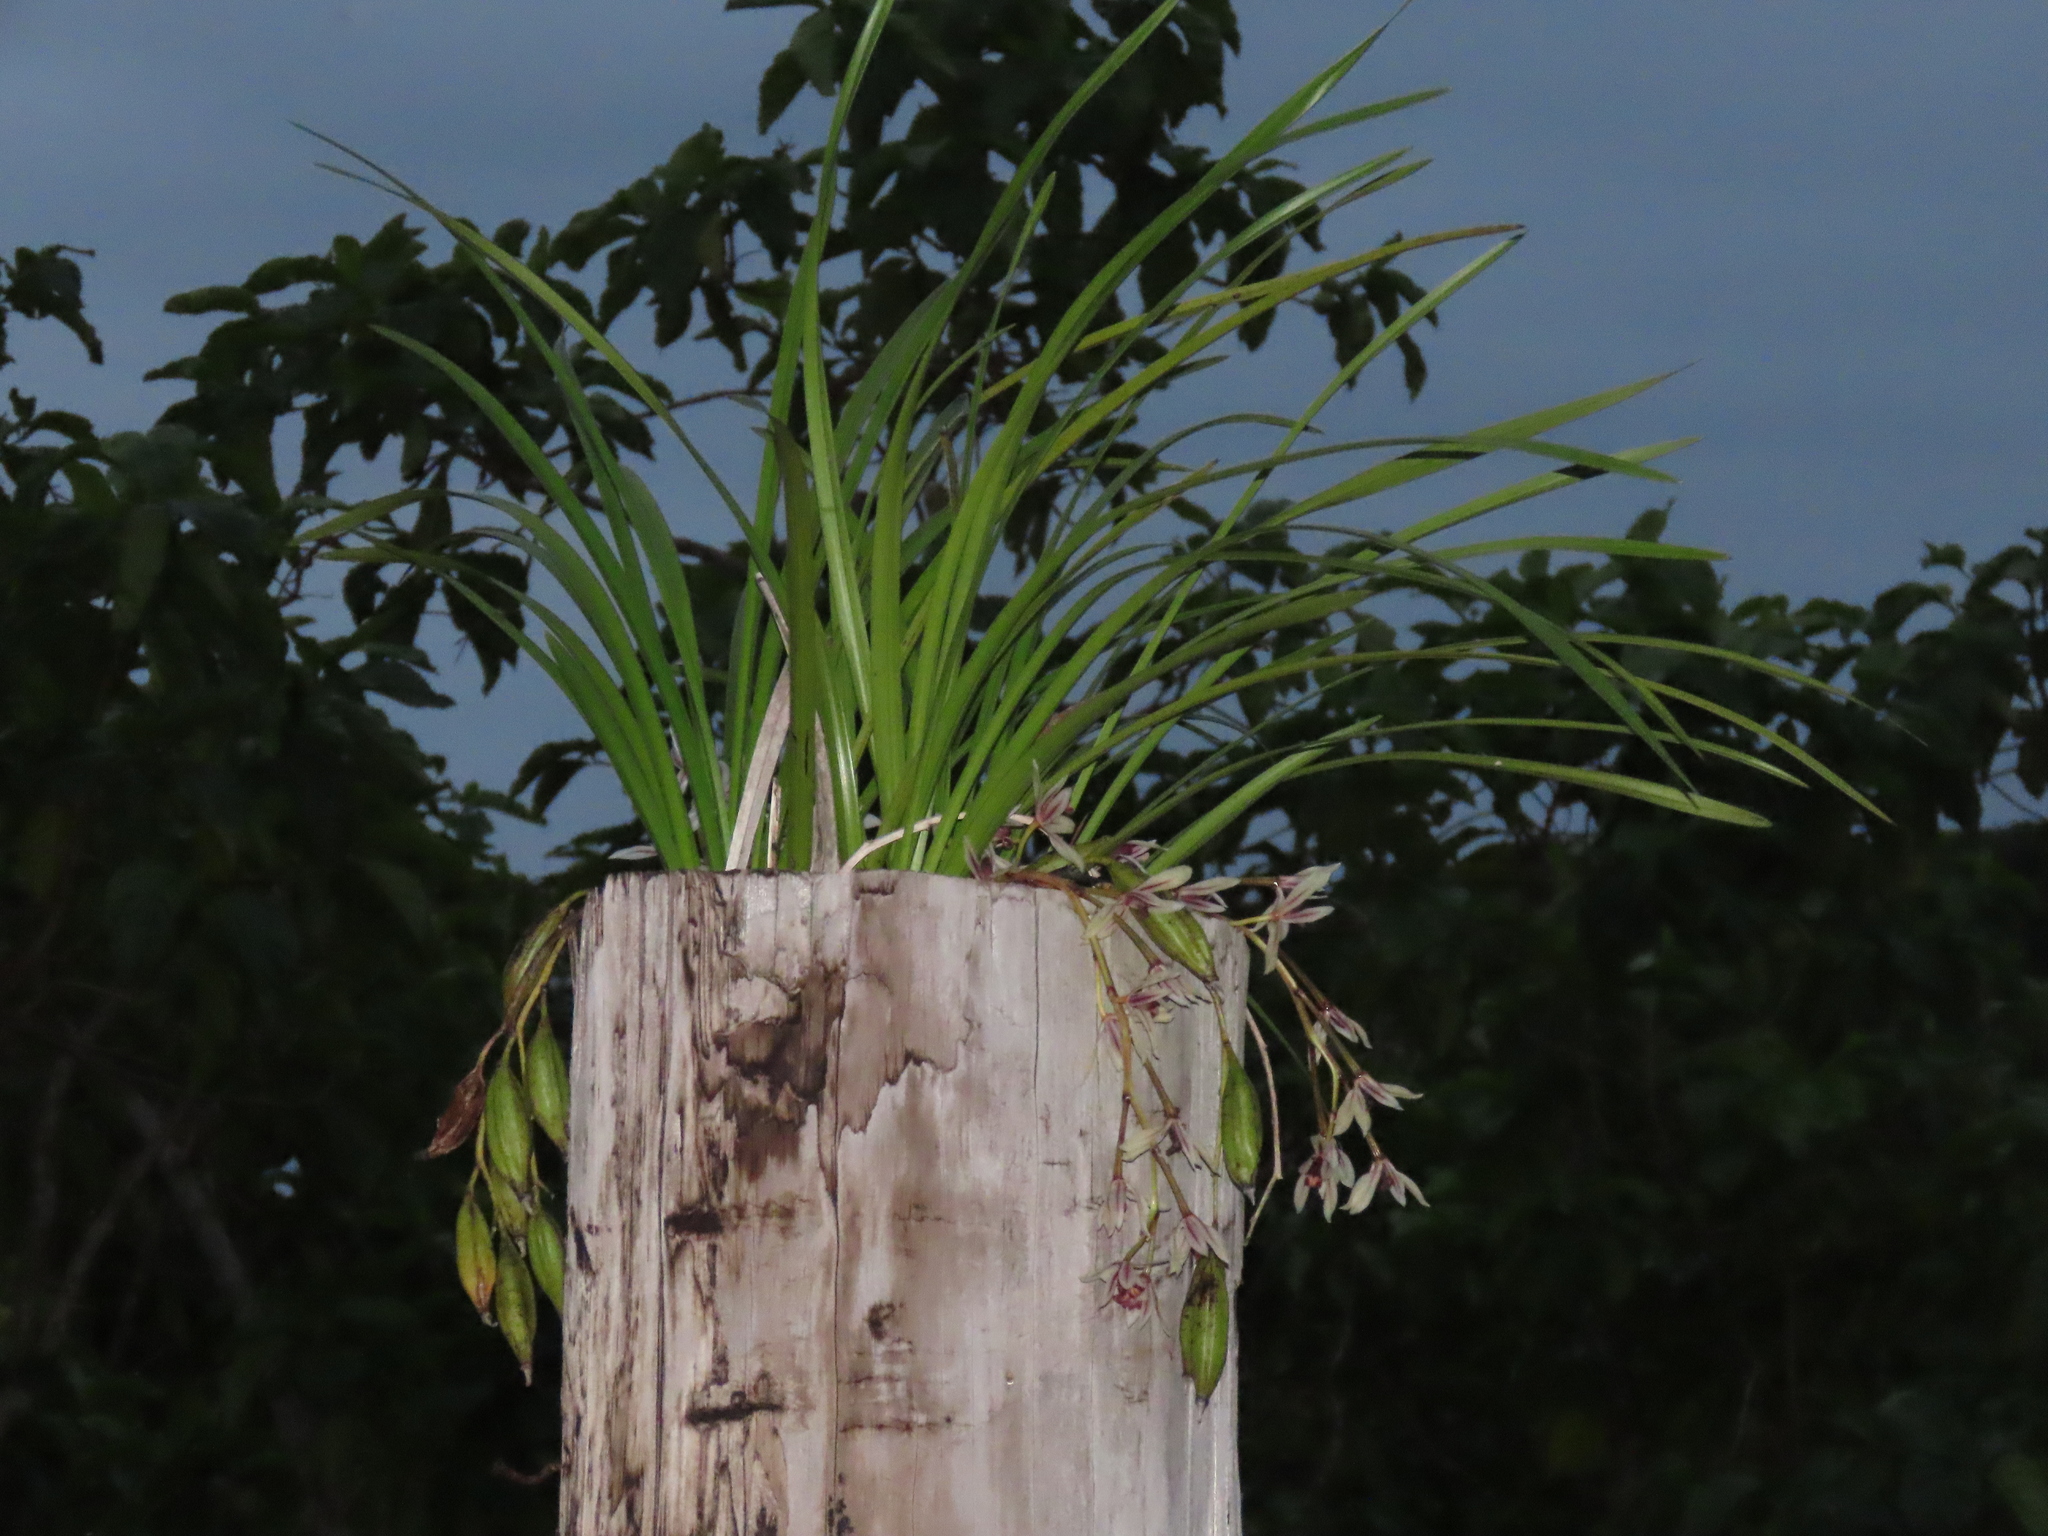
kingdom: Plantae
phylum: Tracheophyta
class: Liliopsida
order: Asparagales
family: Orchidaceae
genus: Cymbidium
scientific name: Cymbidium dayanum
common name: Orchid
